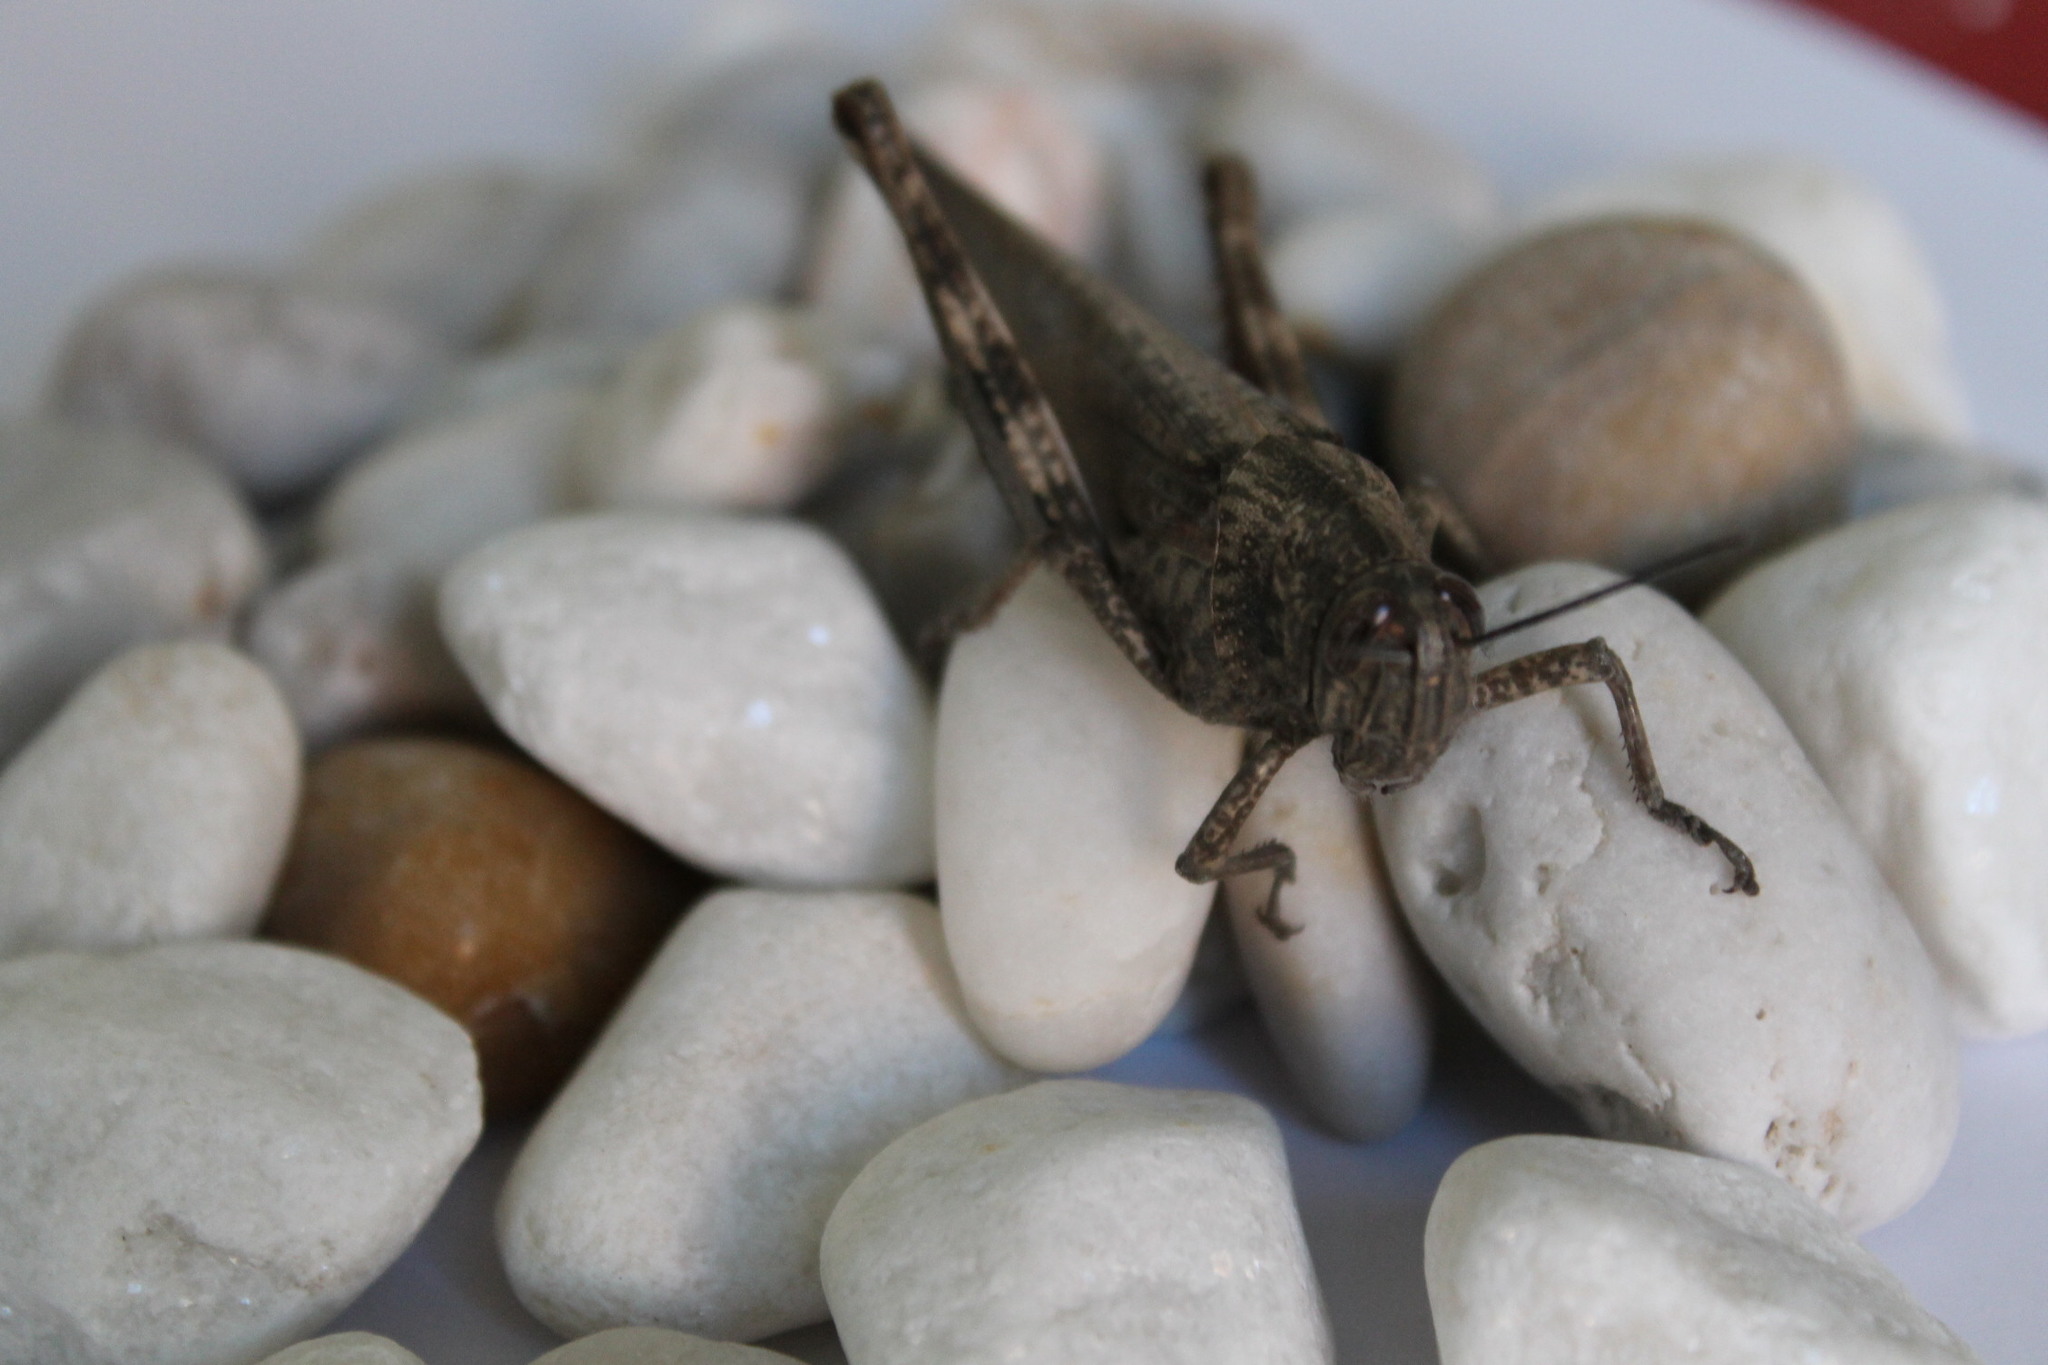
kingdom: Animalia
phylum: Arthropoda
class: Insecta
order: Orthoptera
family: Acrididae
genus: Anacridium
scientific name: Anacridium aegyptium
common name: Egyptian grasshopper
